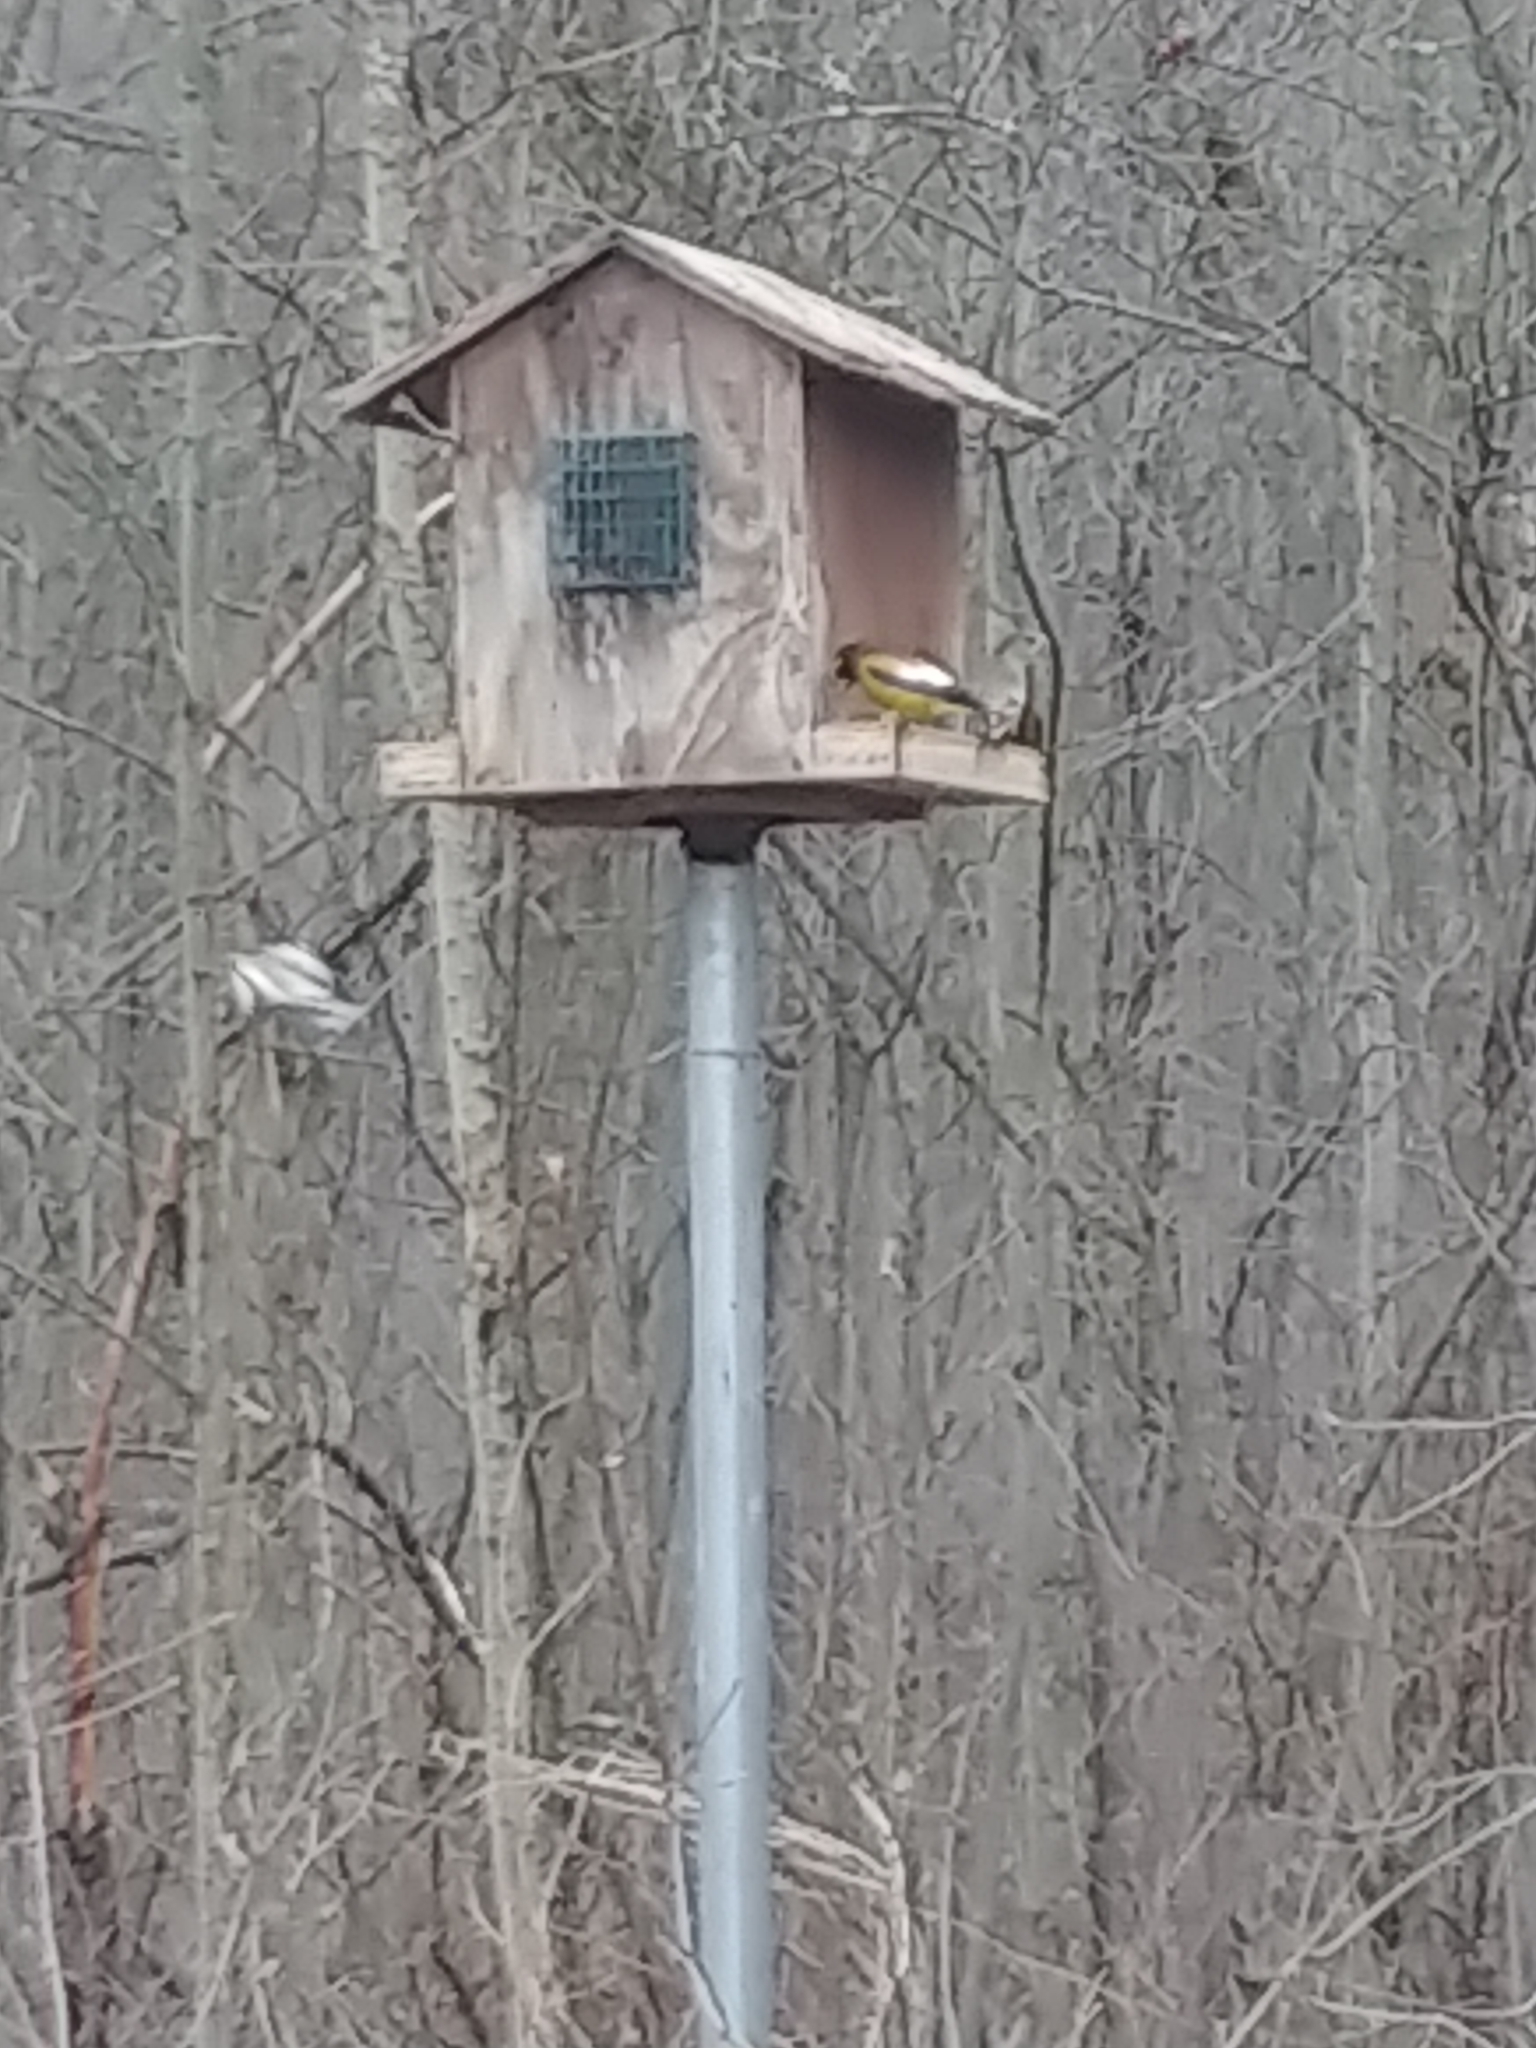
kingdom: Animalia
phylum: Chordata
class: Aves
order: Passeriformes
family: Fringillidae
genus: Hesperiphona
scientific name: Hesperiphona vespertina
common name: Evening grosbeak
